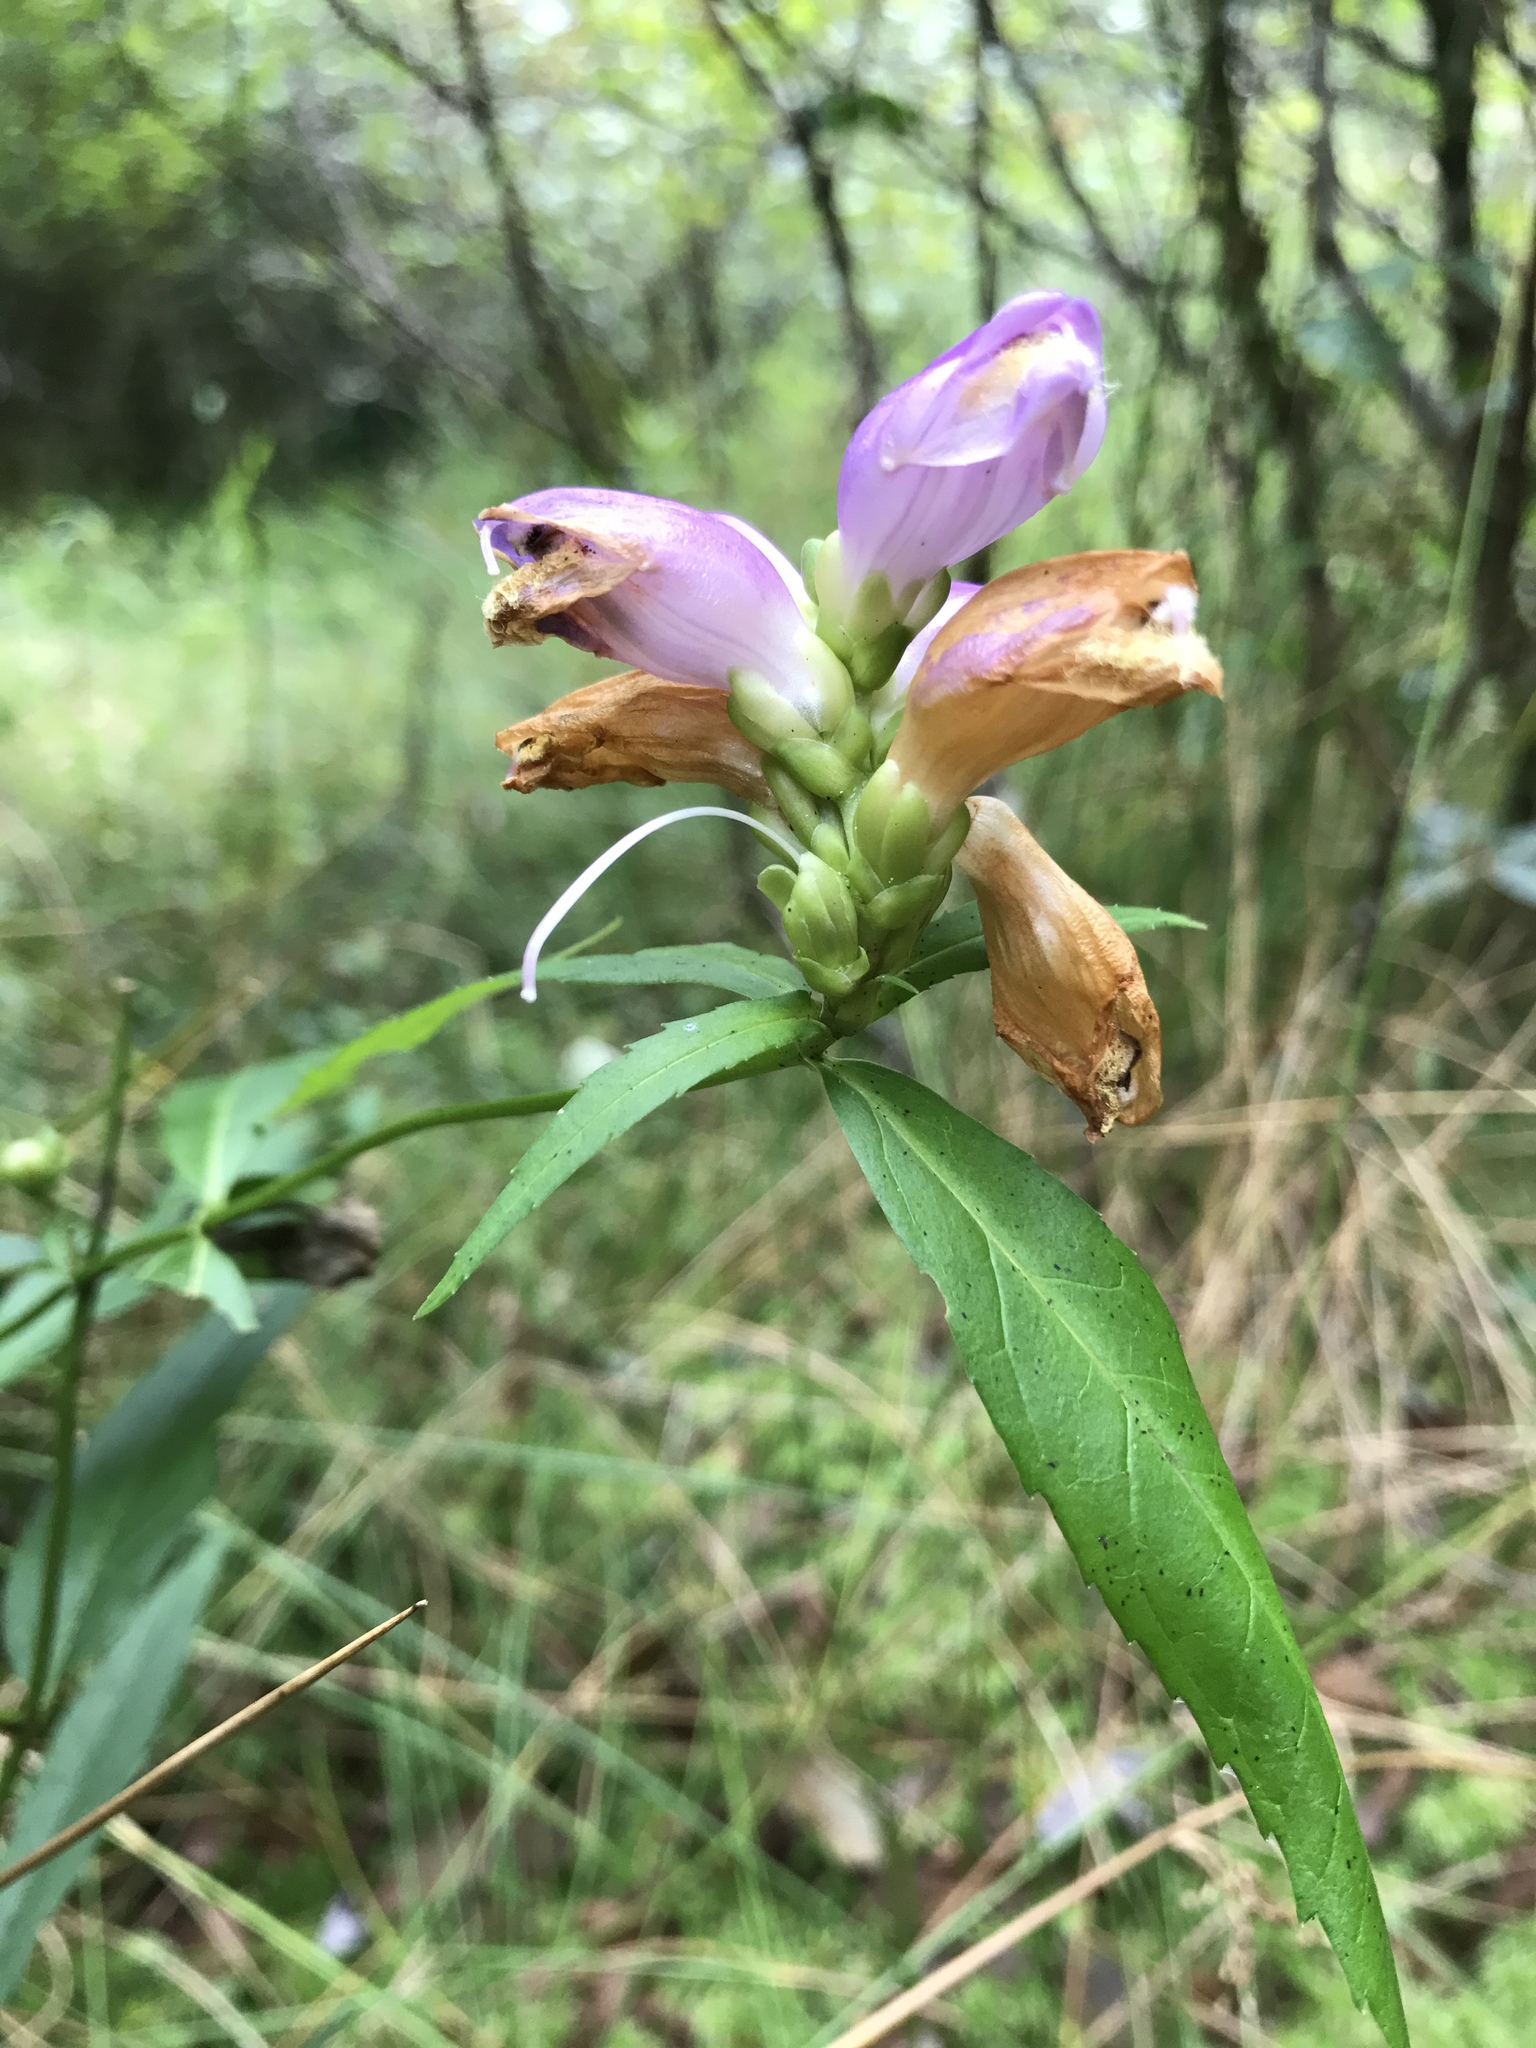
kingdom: Plantae
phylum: Tracheophyta
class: Magnoliopsida
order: Lamiales
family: Plantaginaceae
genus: Chelone
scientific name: Chelone cuthbertii
